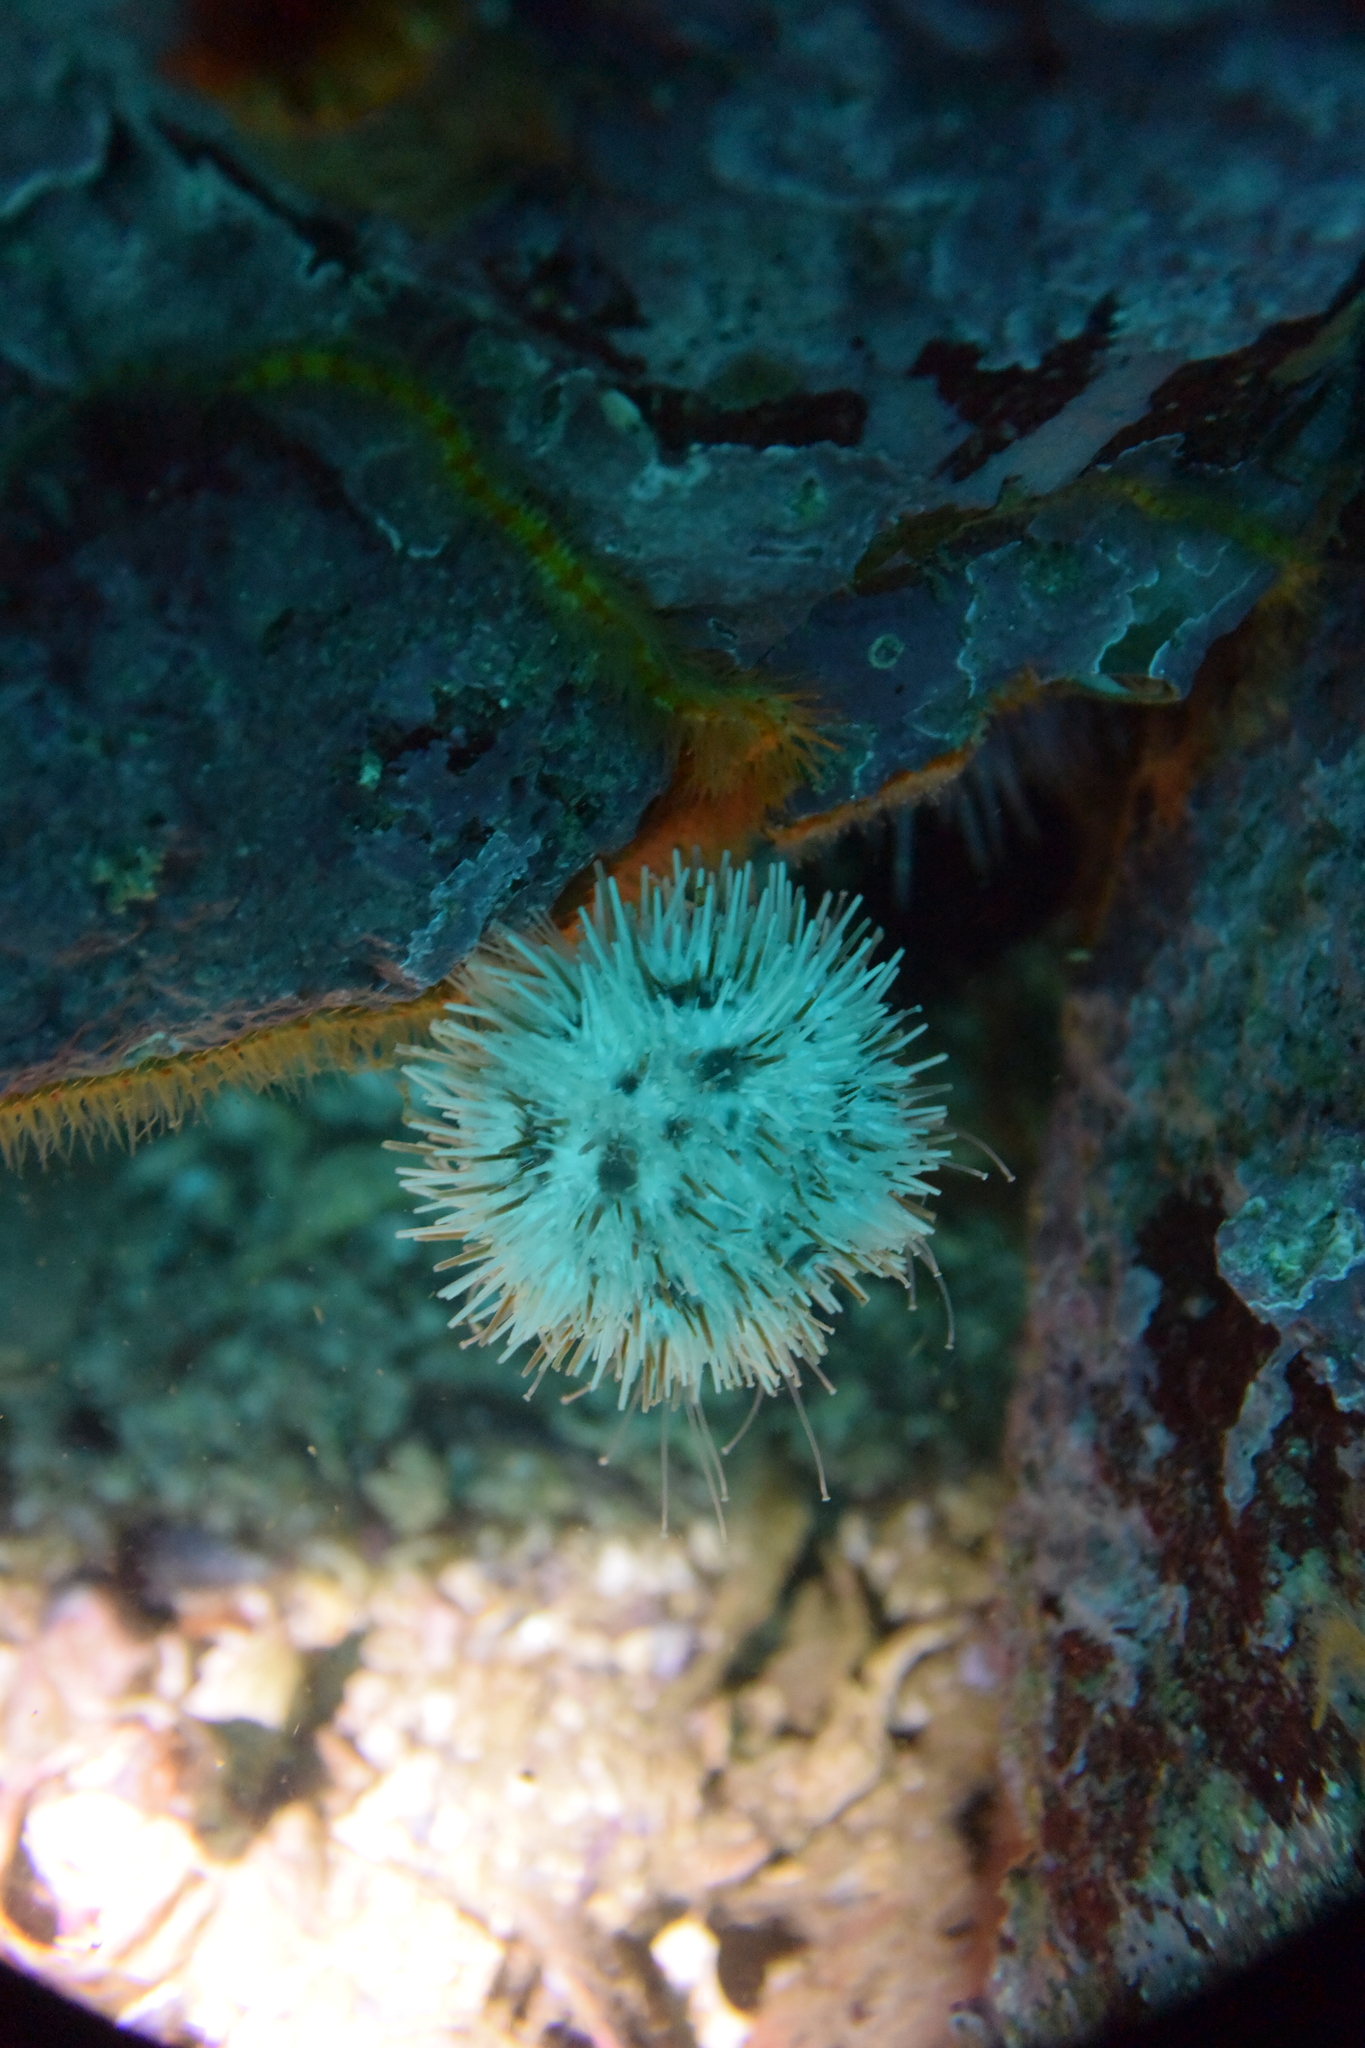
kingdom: Animalia
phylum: Echinodermata
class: Echinoidea
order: Camarodonta
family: Toxopneustidae
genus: Lytechinus
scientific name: Lytechinus pictus
